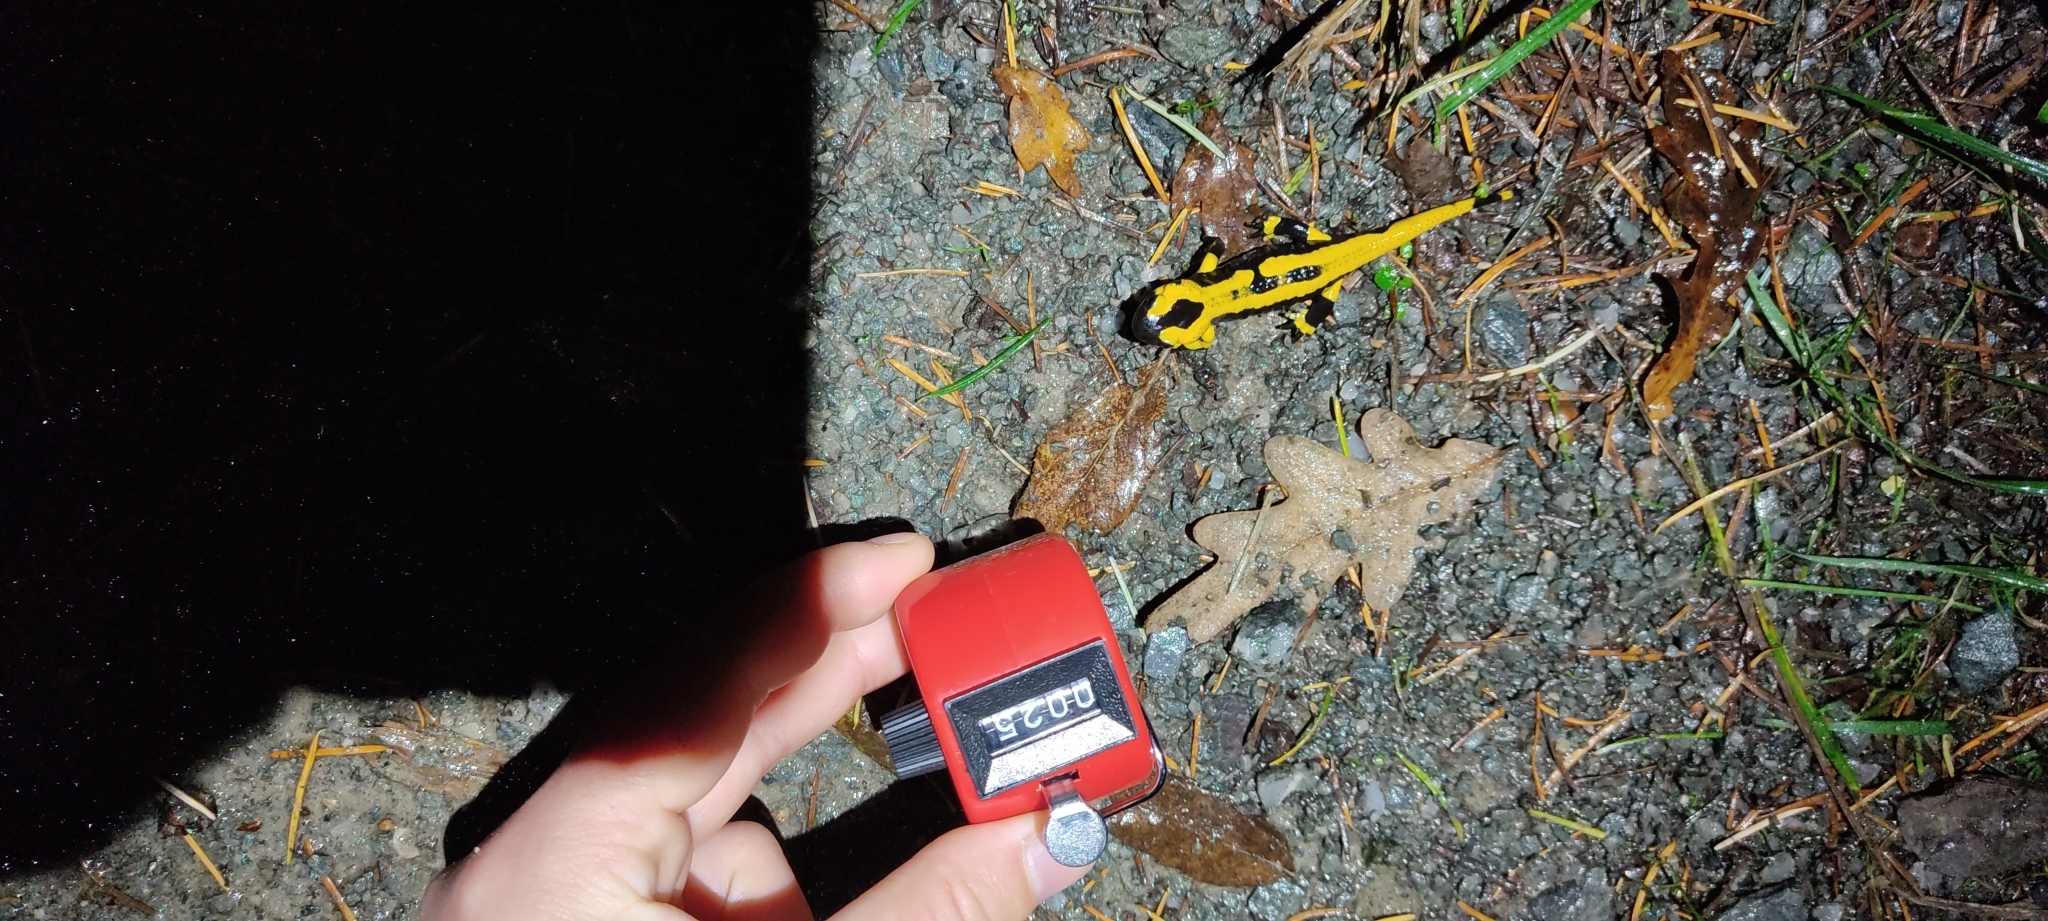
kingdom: Animalia
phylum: Chordata
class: Amphibia
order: Caudata
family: Salamandridae
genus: Salamandra
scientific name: Salamandra salamandra
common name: Fire salamander
